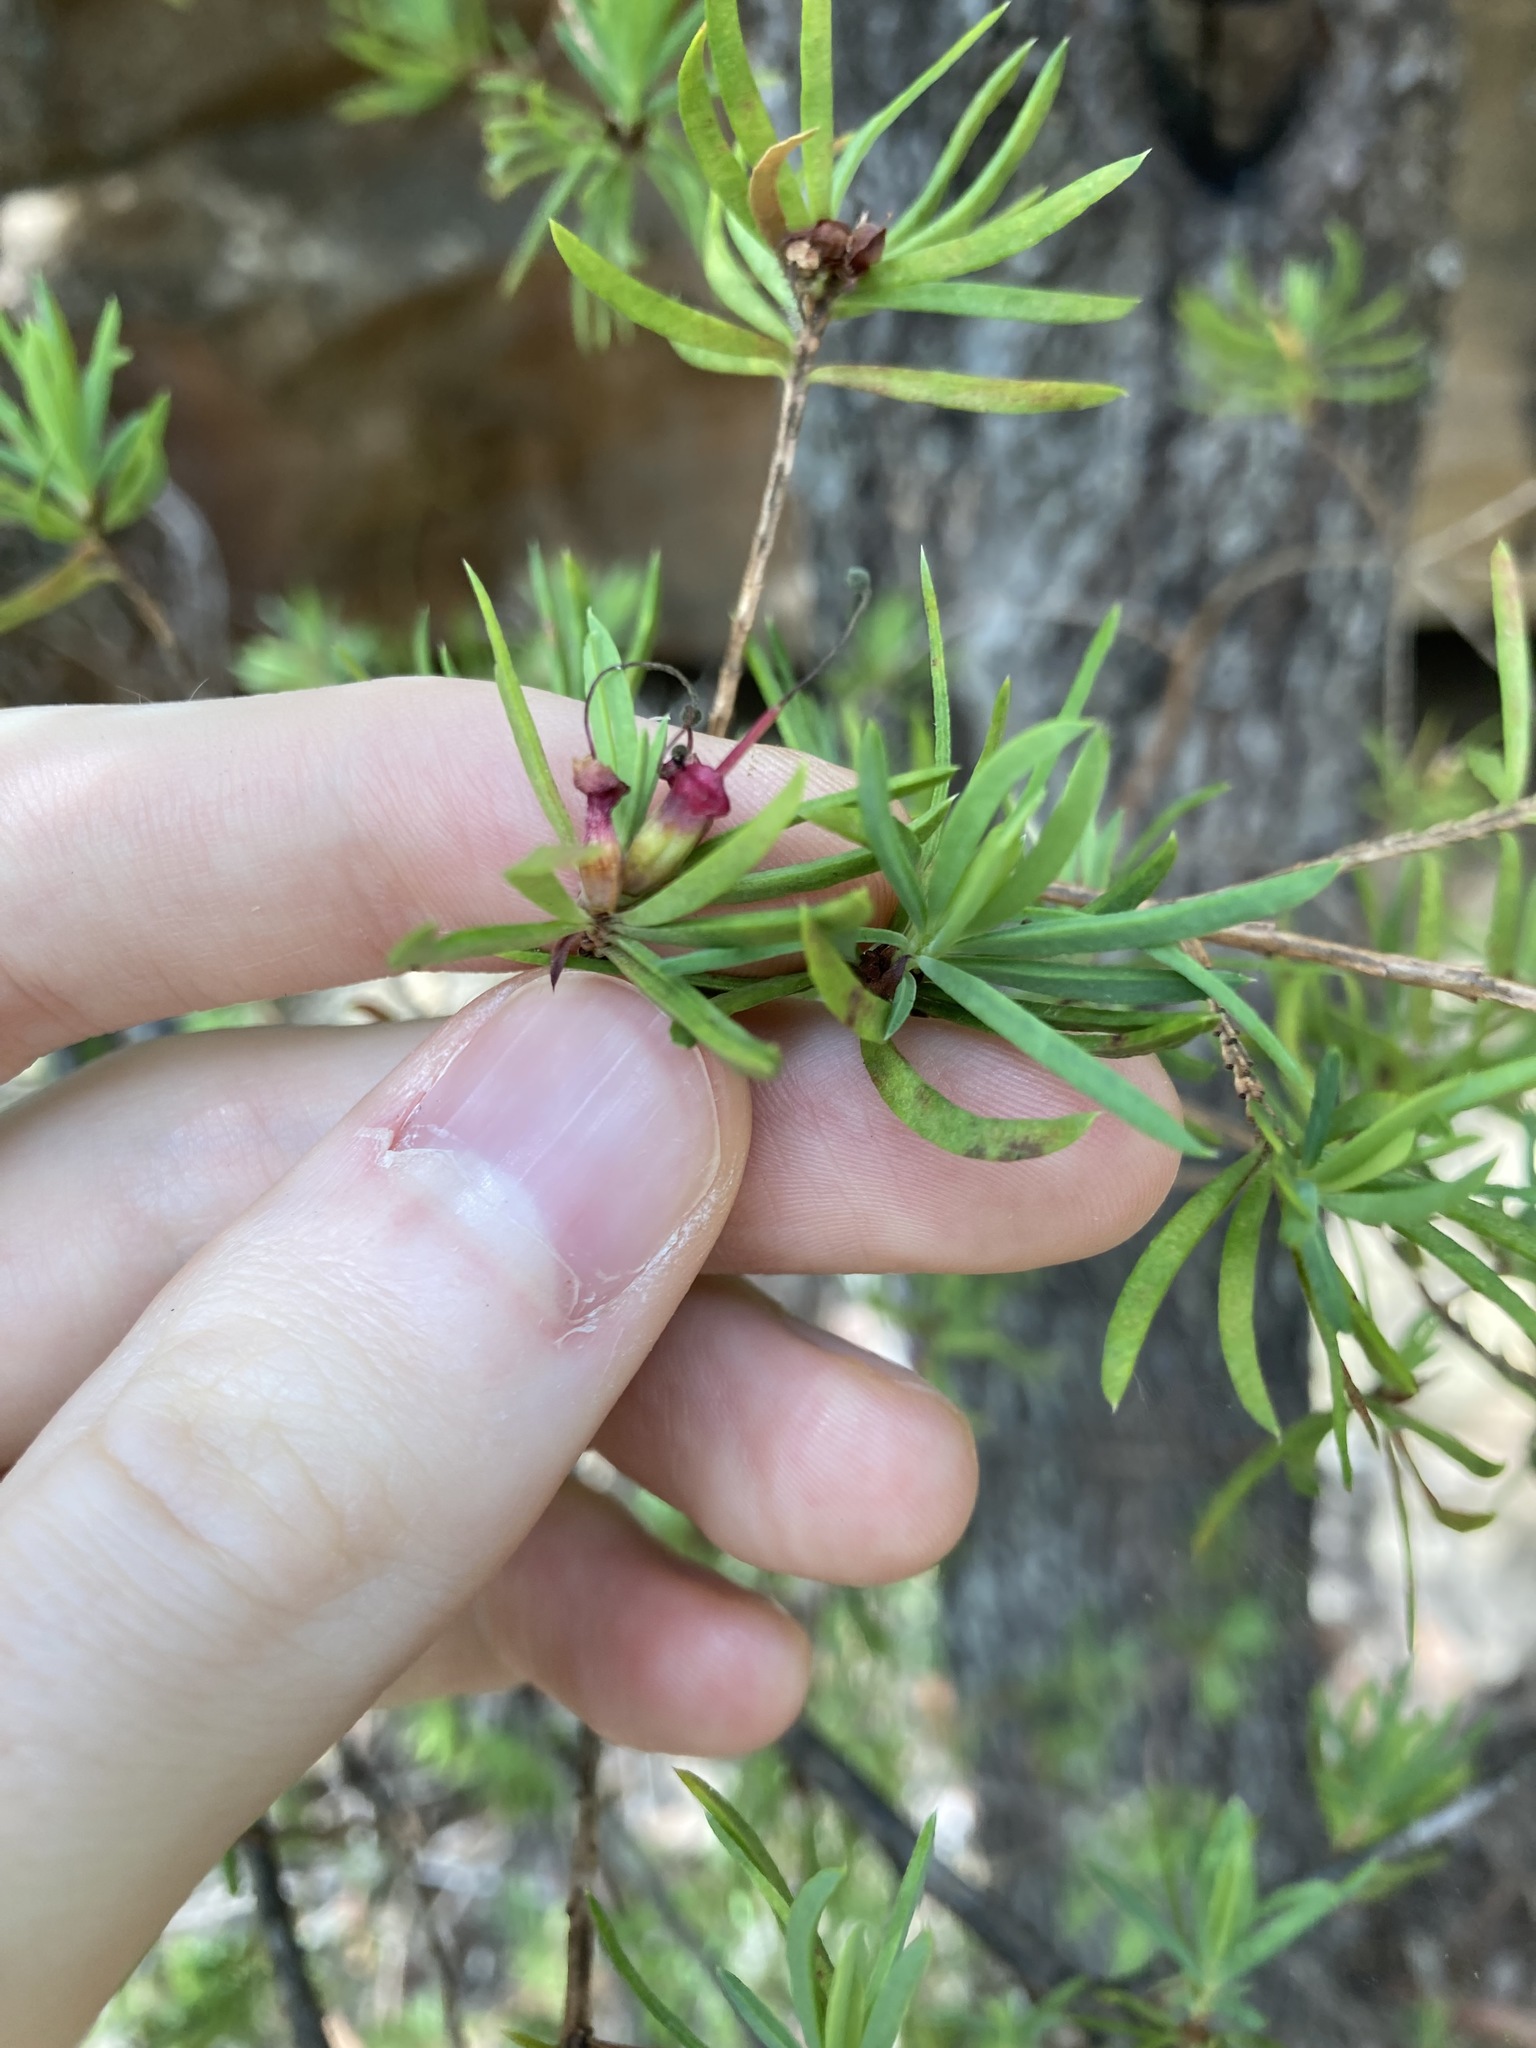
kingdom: Plantae
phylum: Tracheophyta
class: Magnoliopsida
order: Myrtales
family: Myrtaceae
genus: Darwinia
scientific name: Darwinia procera
